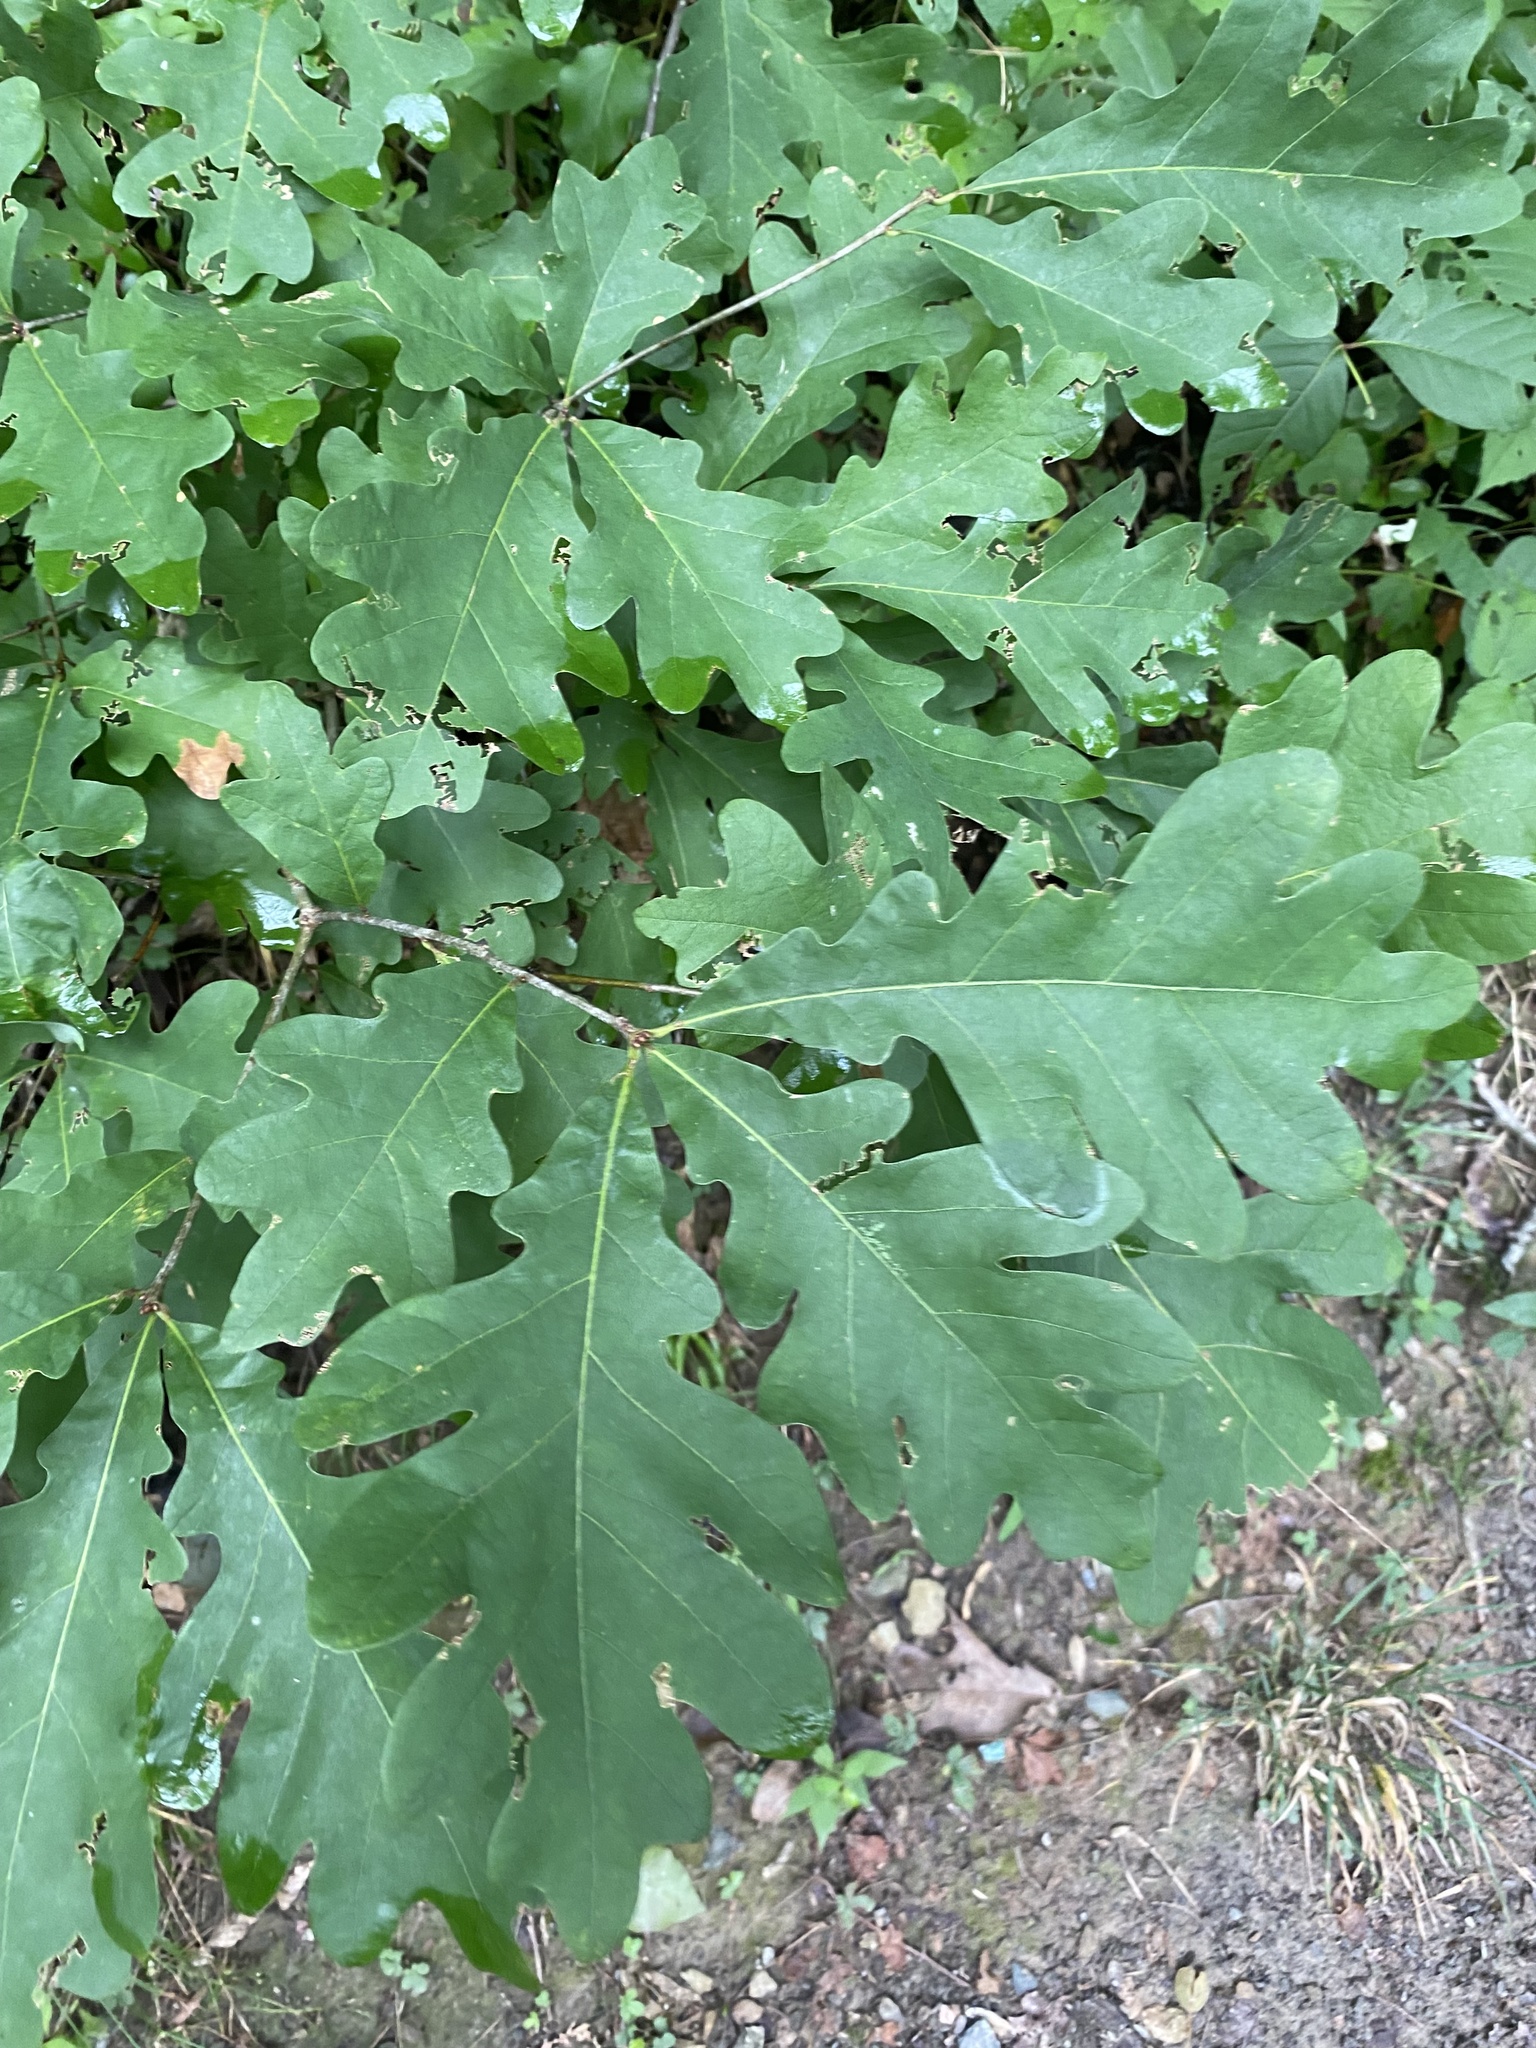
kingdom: Plantae
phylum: Tracheophyta
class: Magnoliopsida
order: Fagales
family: Fagaceae
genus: Quercus
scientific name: Quercus alba
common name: White oak
